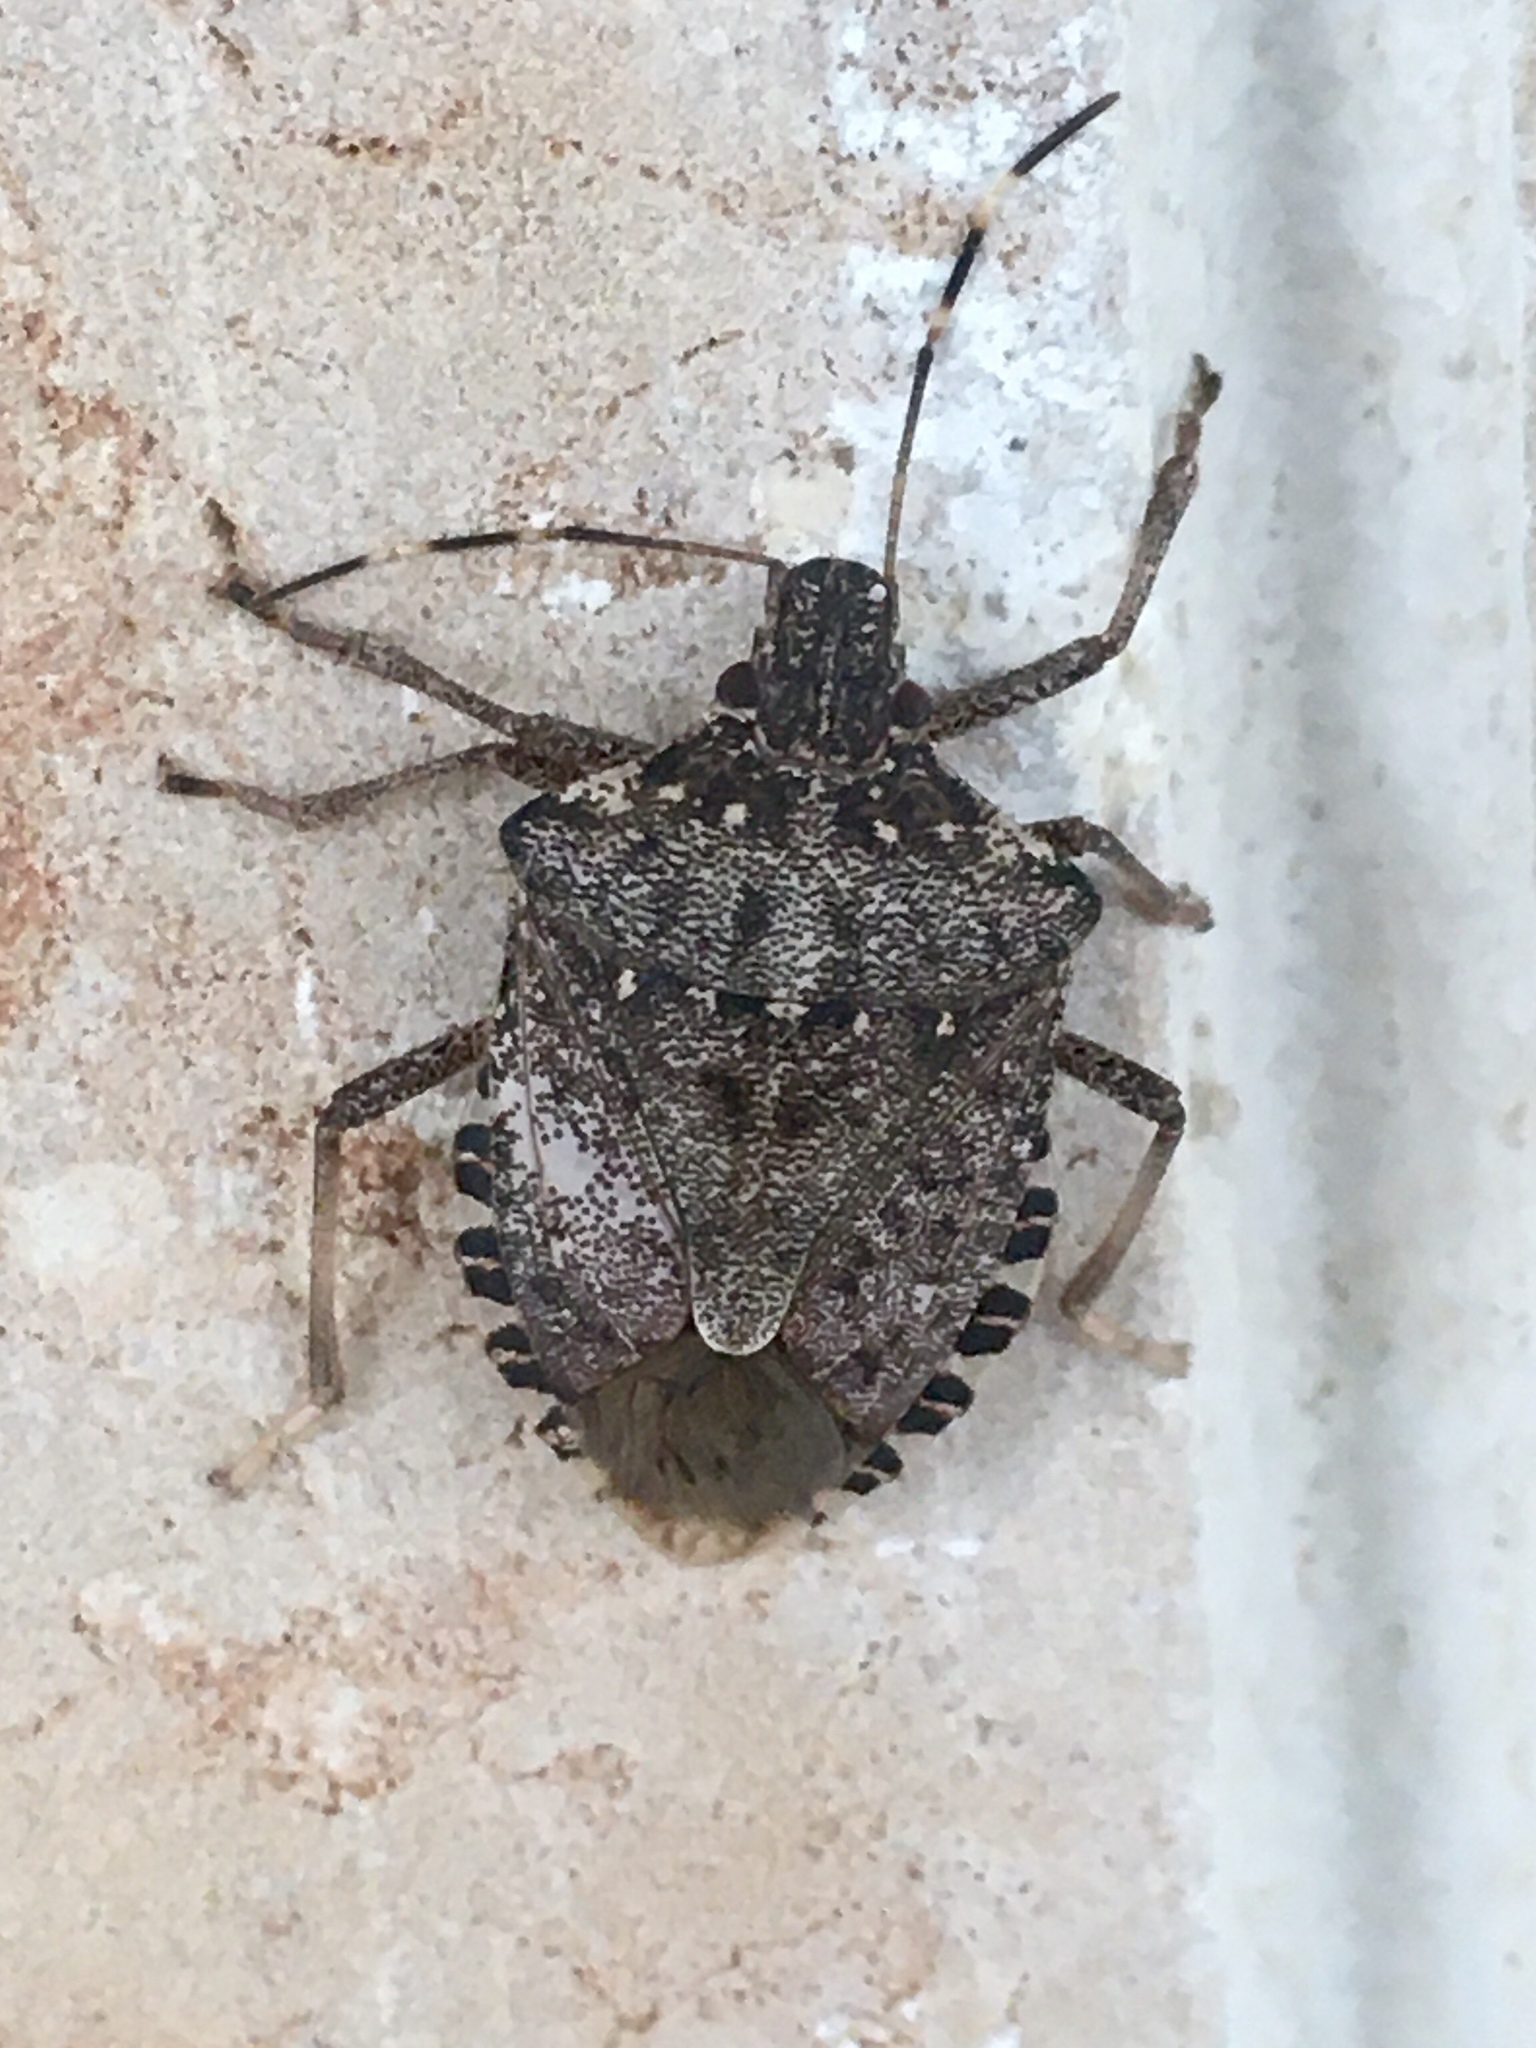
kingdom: Animalia
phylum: Arthropoda
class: Insecta
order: Hemiptera
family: Pentatomidae
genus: Halyomorpha
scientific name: Halyomorpha halys
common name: Brown marmorated stink bug
